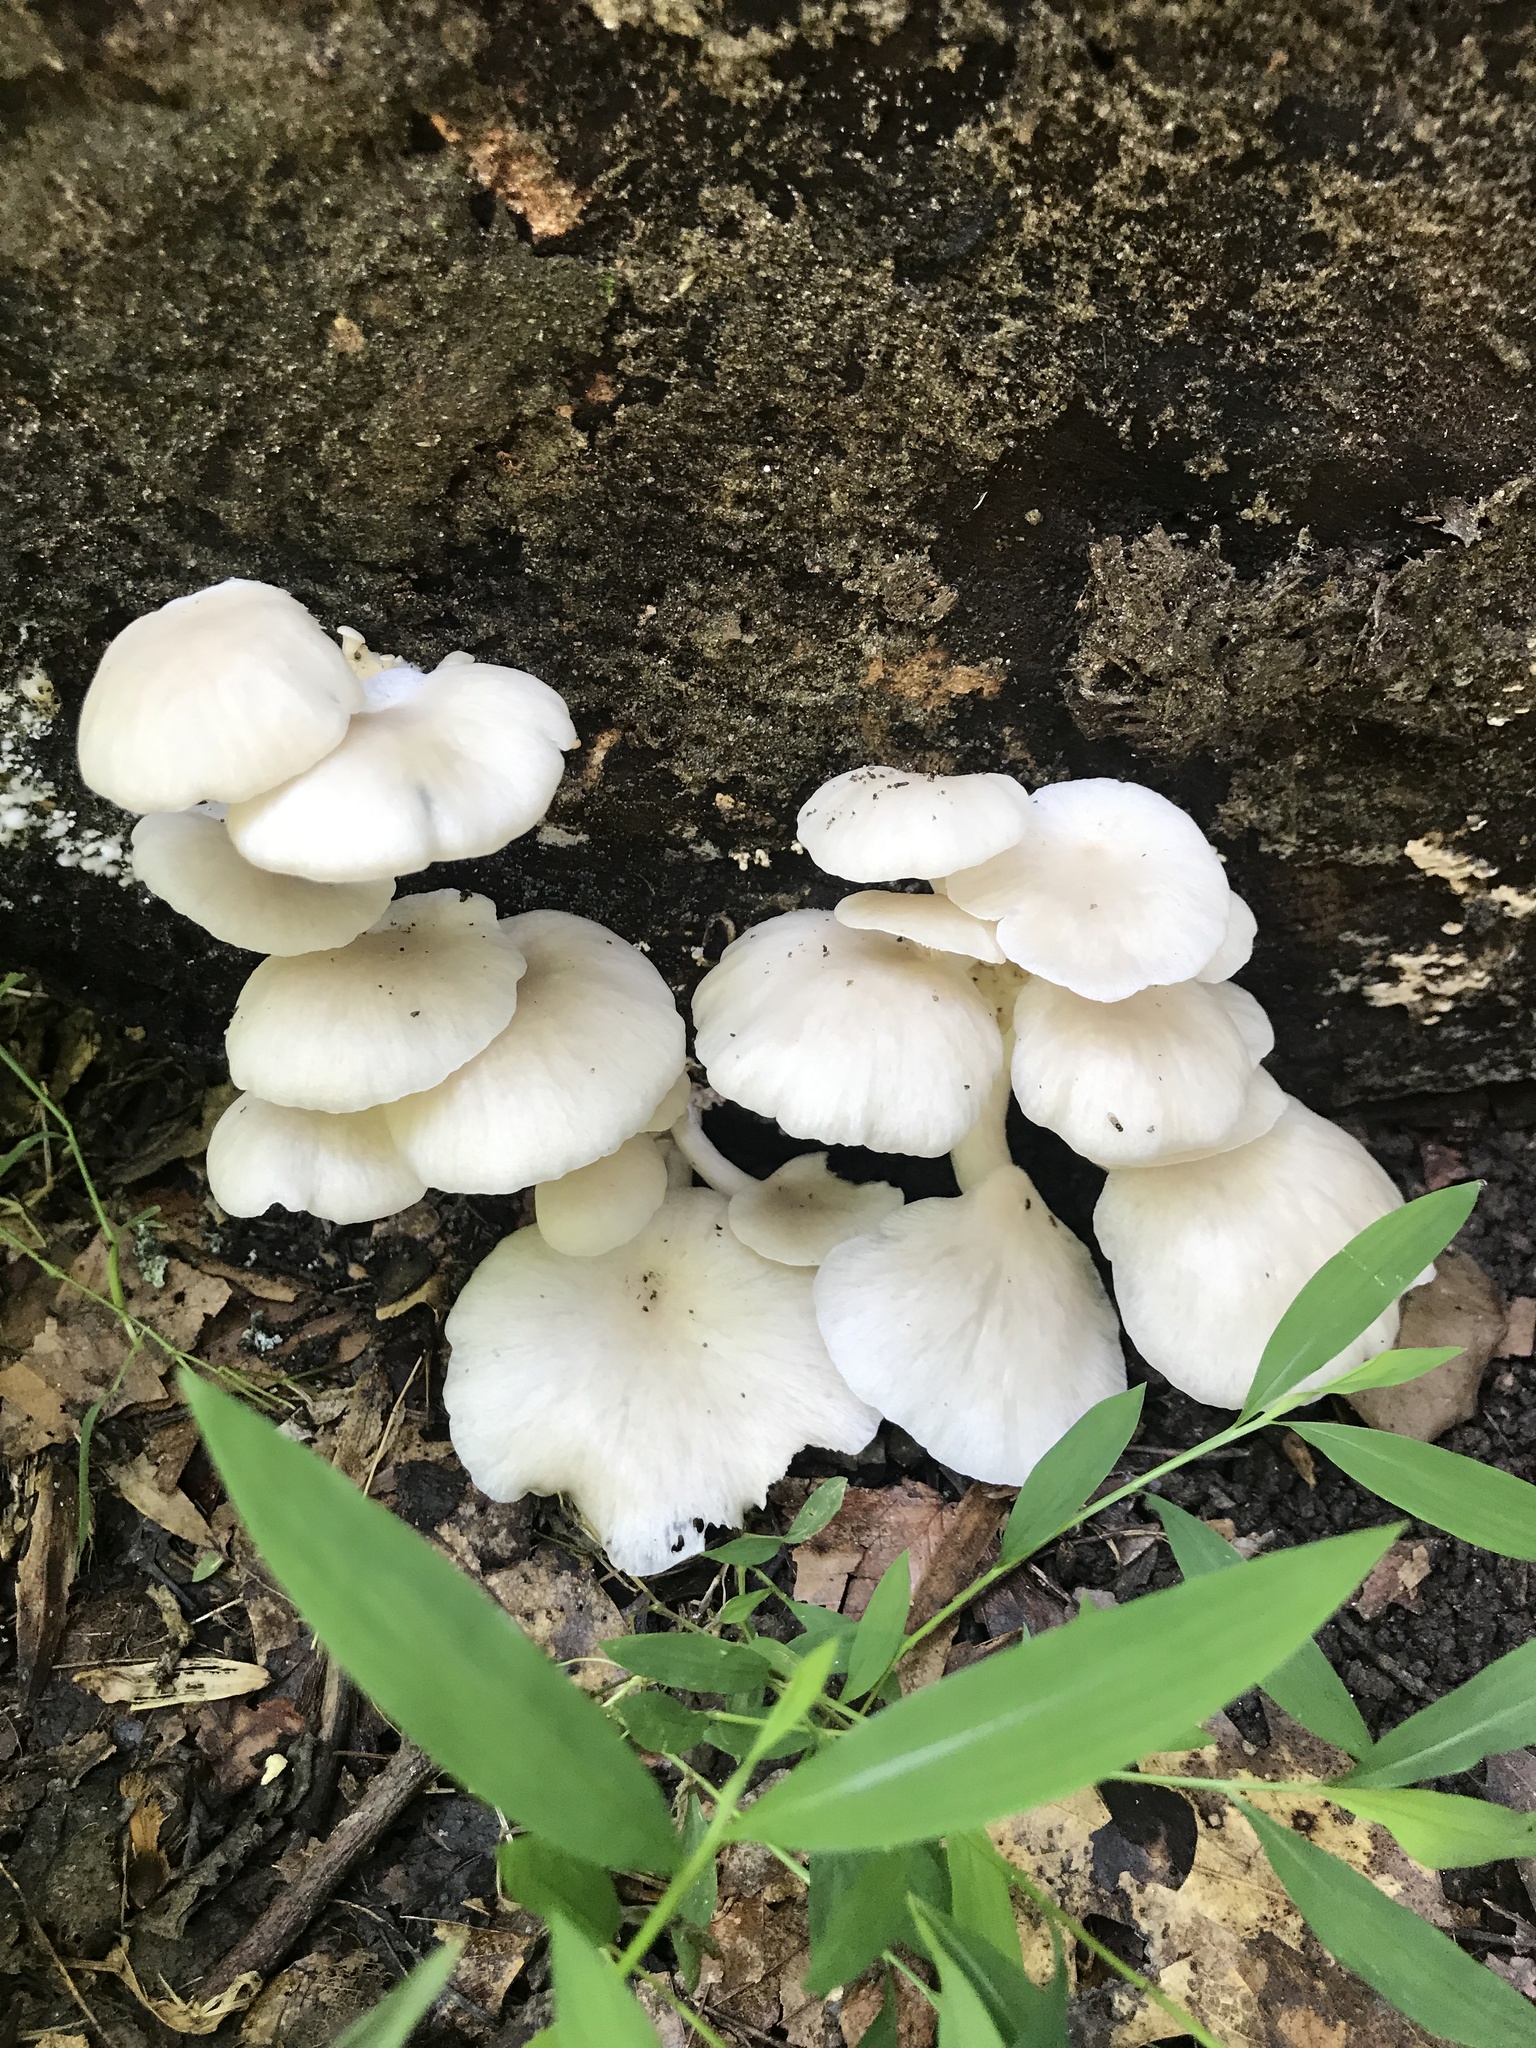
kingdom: Fungi
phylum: Basidiomycota
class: Agaricomycetes
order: Agaricales
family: Pleurotaceae
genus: Pleurotus
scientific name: Pleurotus pulmonarius
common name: Pale oyster
